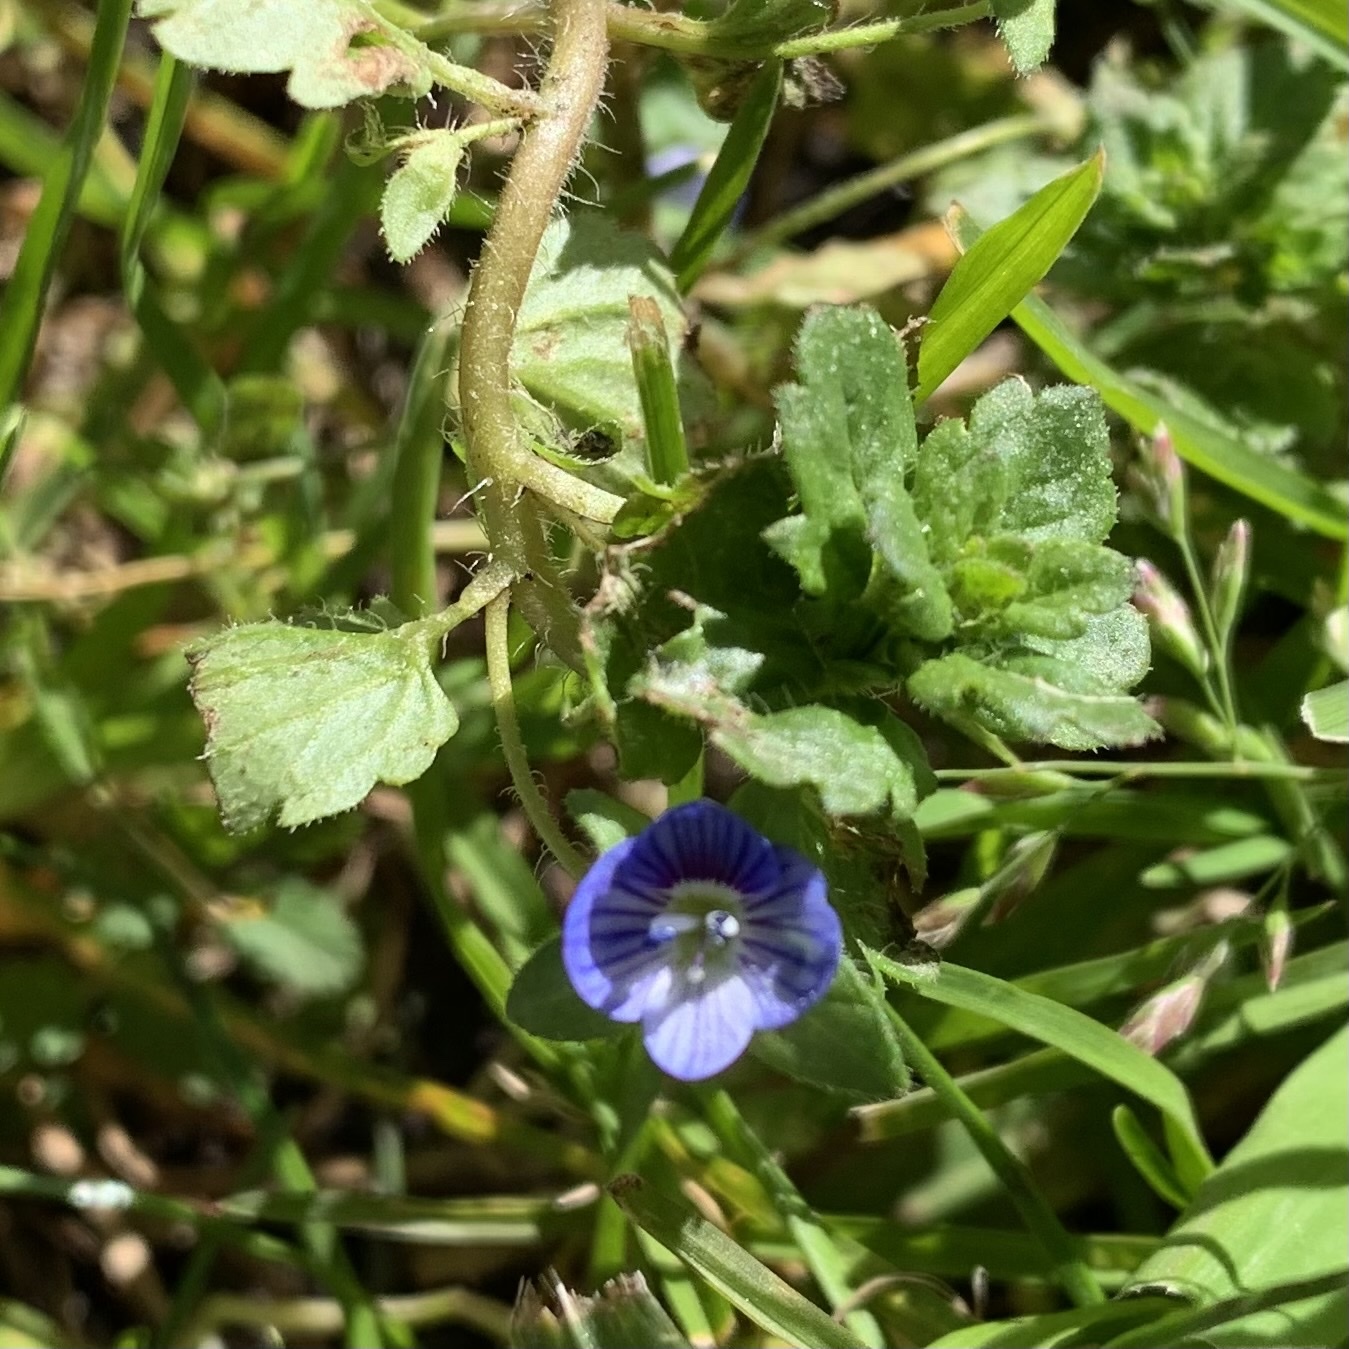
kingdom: Plantae
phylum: Tracheophyta
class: Magnoliopsida
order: Lamiales
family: Plantaginaceae
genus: Veronica
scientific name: Veronica persica
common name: Common field-speedwell
